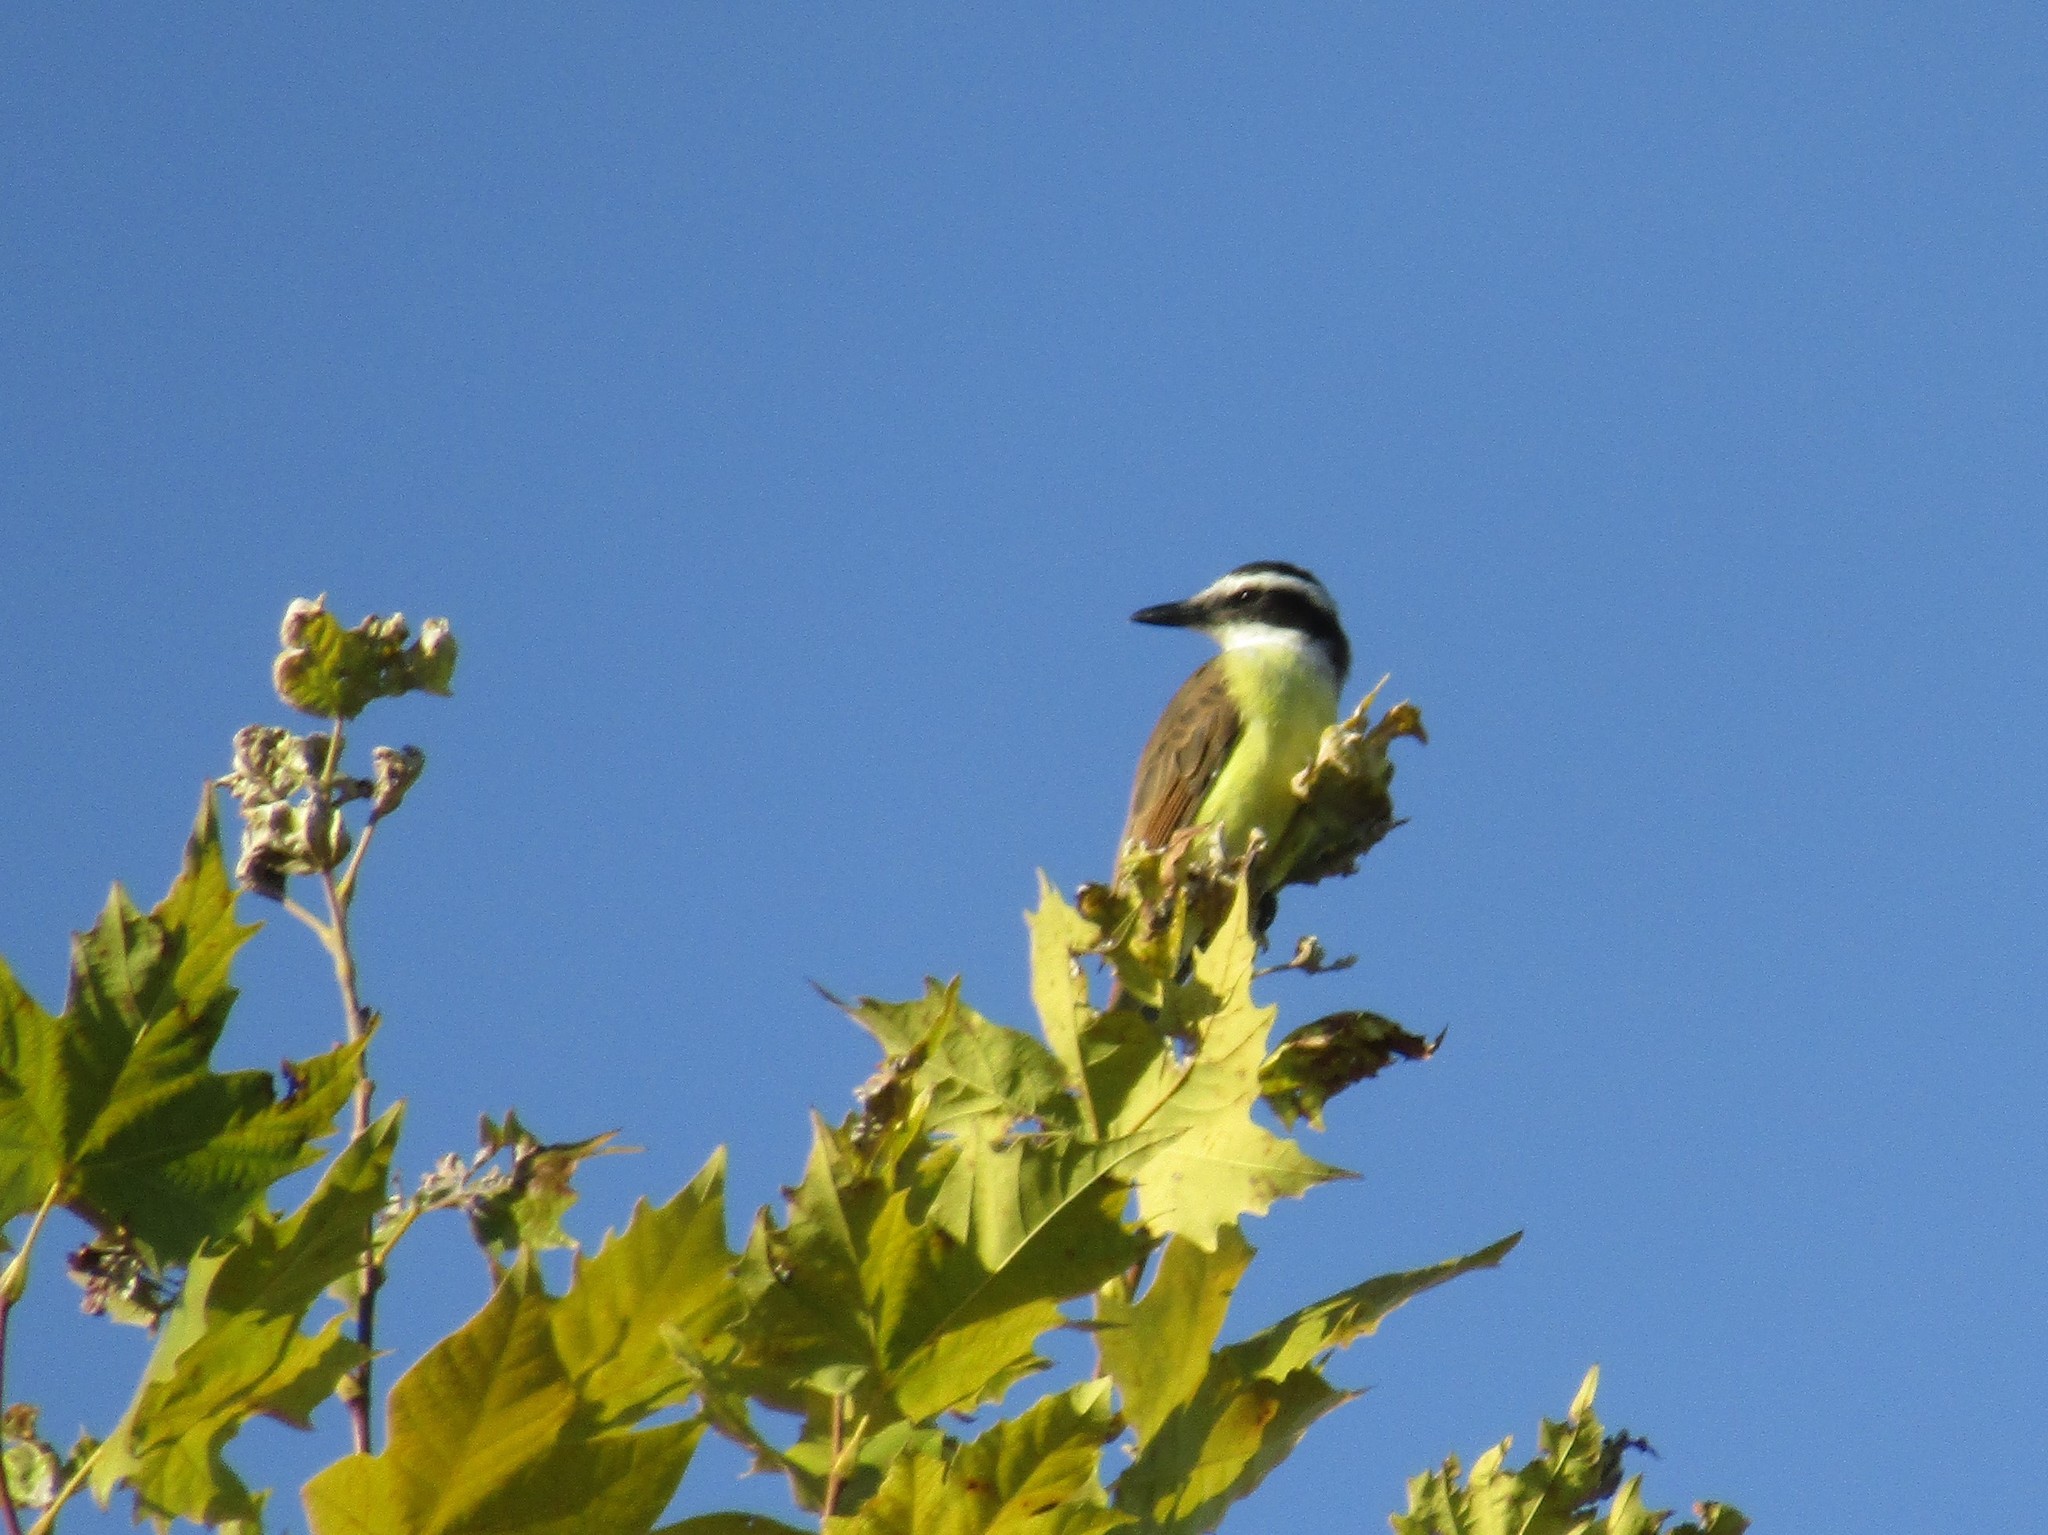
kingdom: Animalia
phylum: Chordata
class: Aves
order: Passeriformes
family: Tyrannidae
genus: Pitangus
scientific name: Pitangus sulphuratus
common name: Great kiskadee
